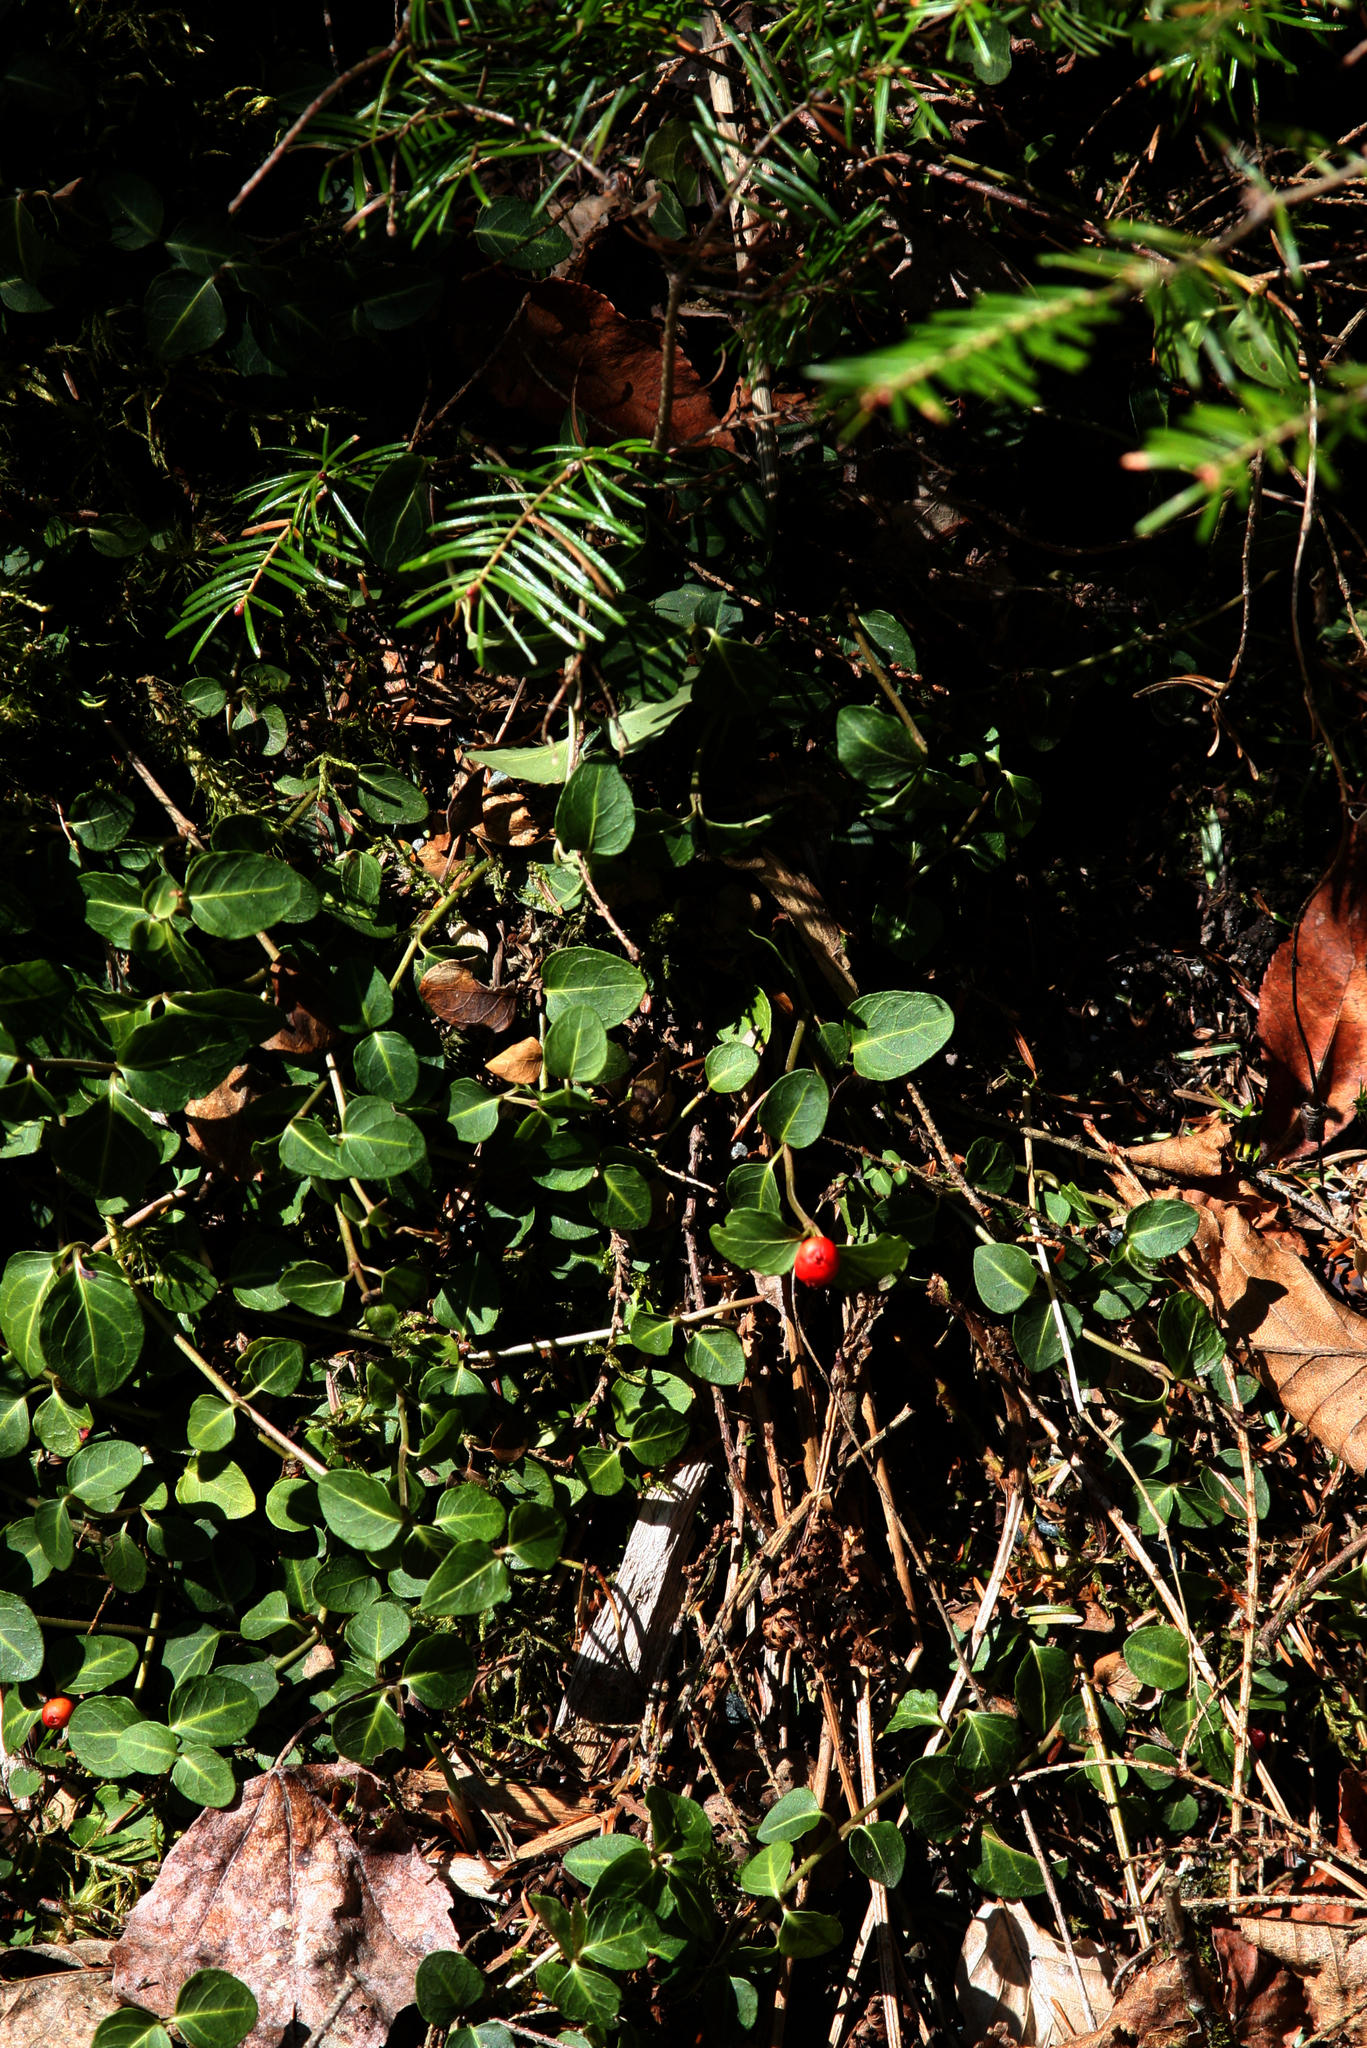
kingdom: Plantae
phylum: Tracheophyta
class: Magnoliopsida
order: Gentianales
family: Rubiaceae
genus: Mitchella
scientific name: Mitchella repens
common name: Partridge-berry
